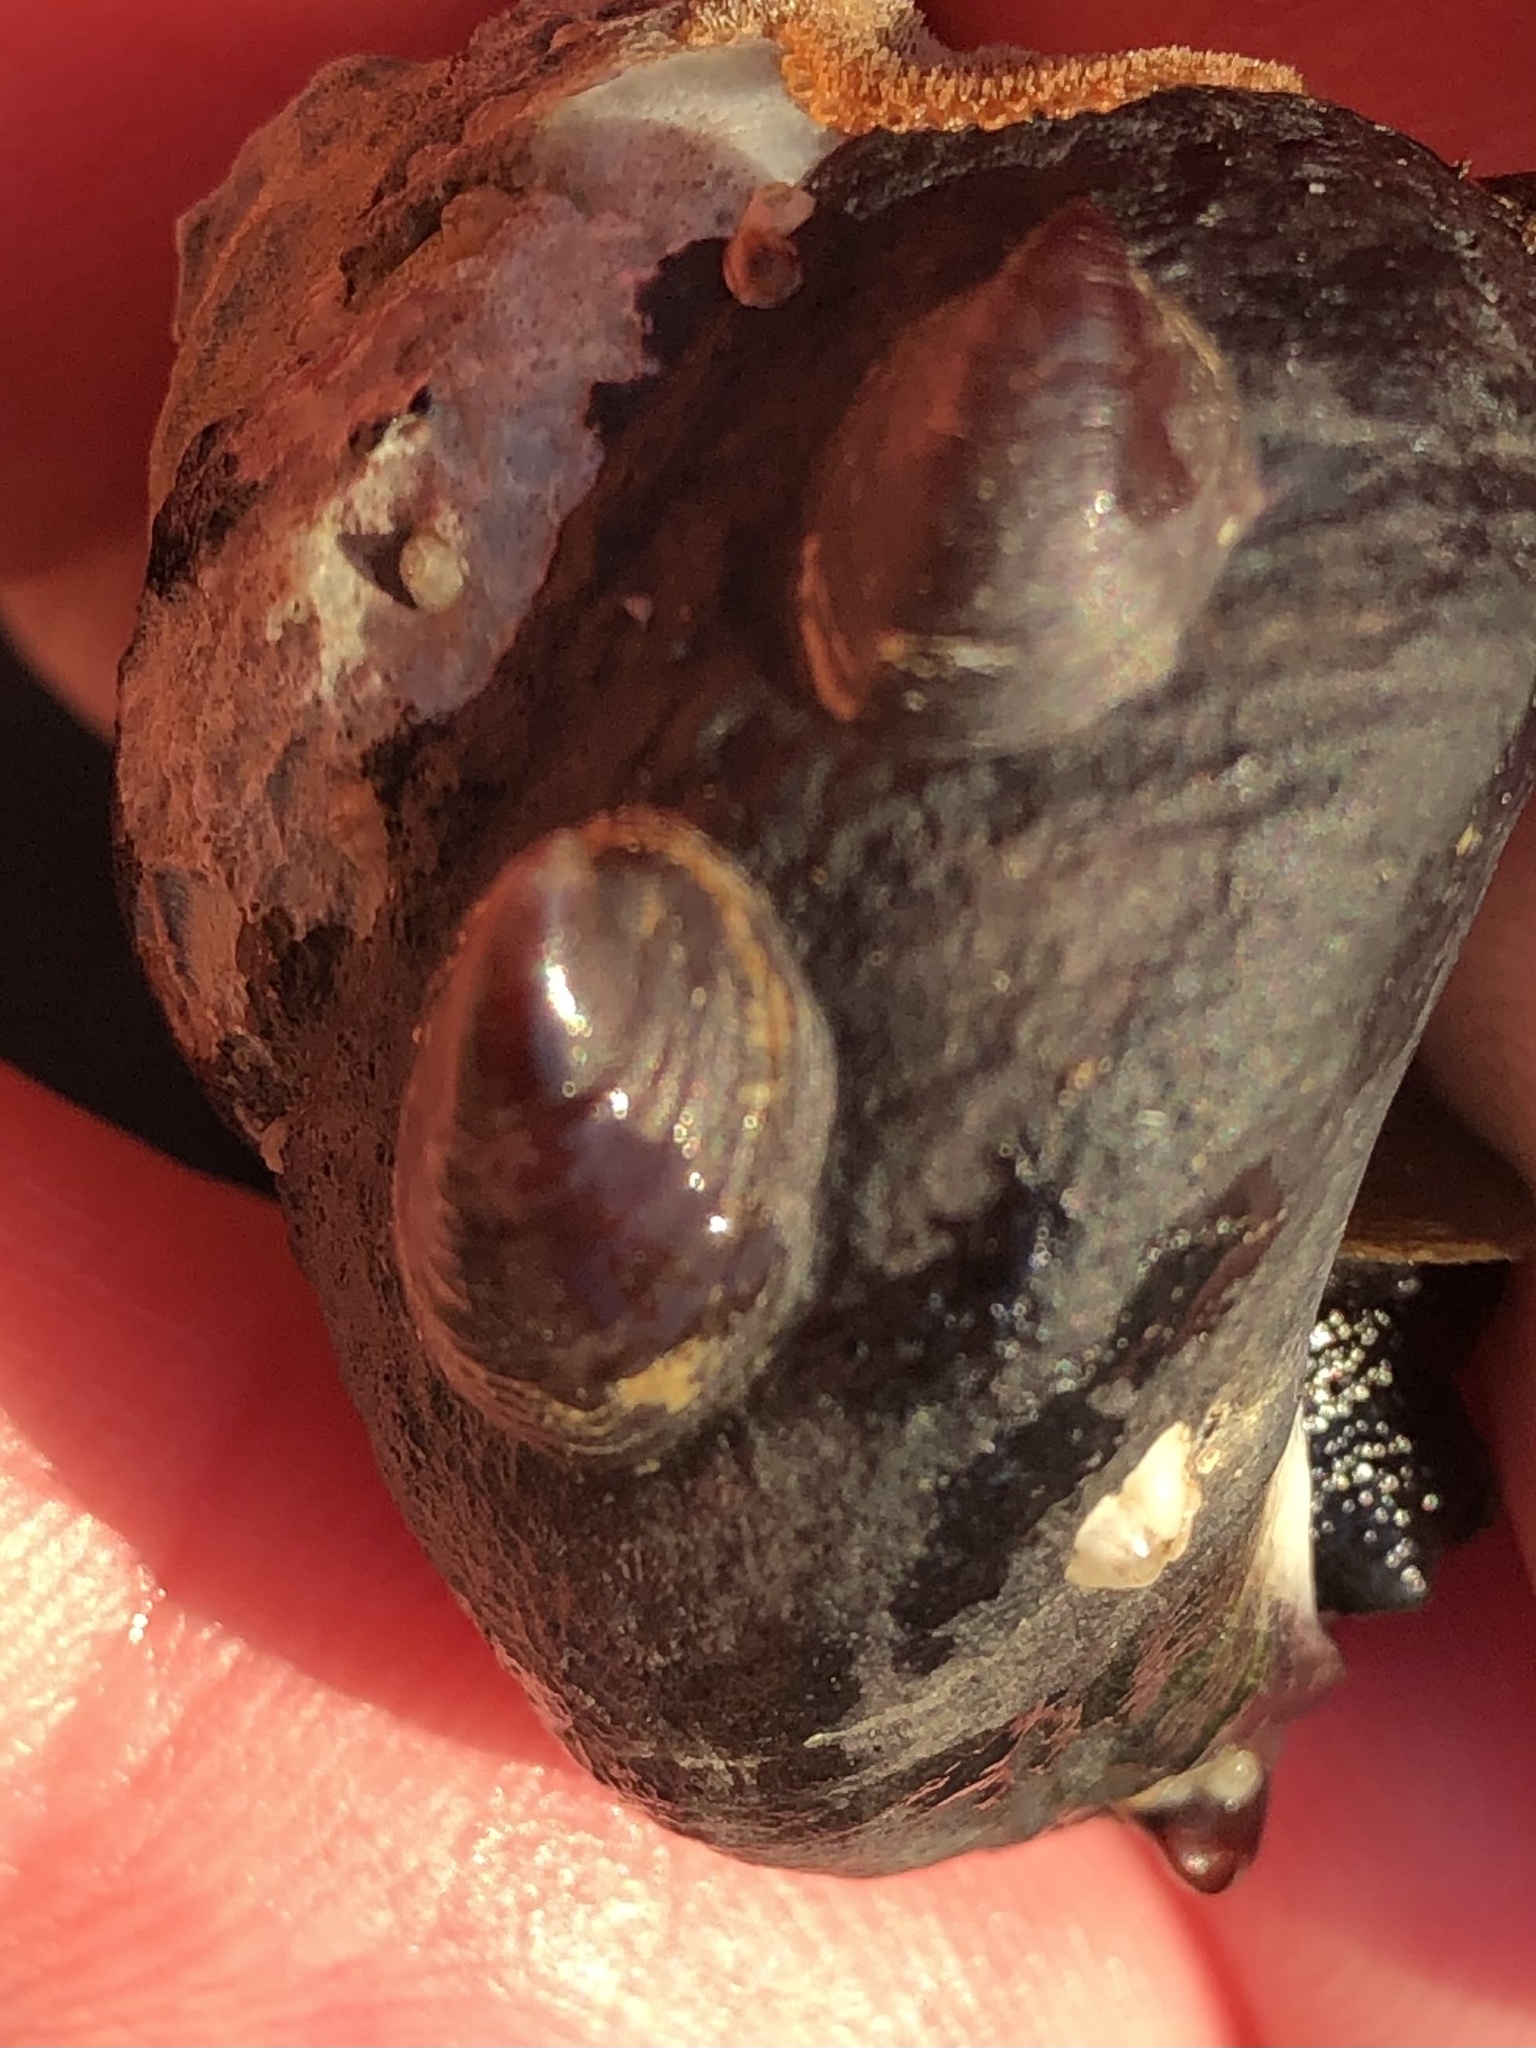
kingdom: Animalia
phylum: Mollusca
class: Gastropoda
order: Littorinimorpha
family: Calyptraeidae
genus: Crepidula
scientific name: Crepidula adunca
